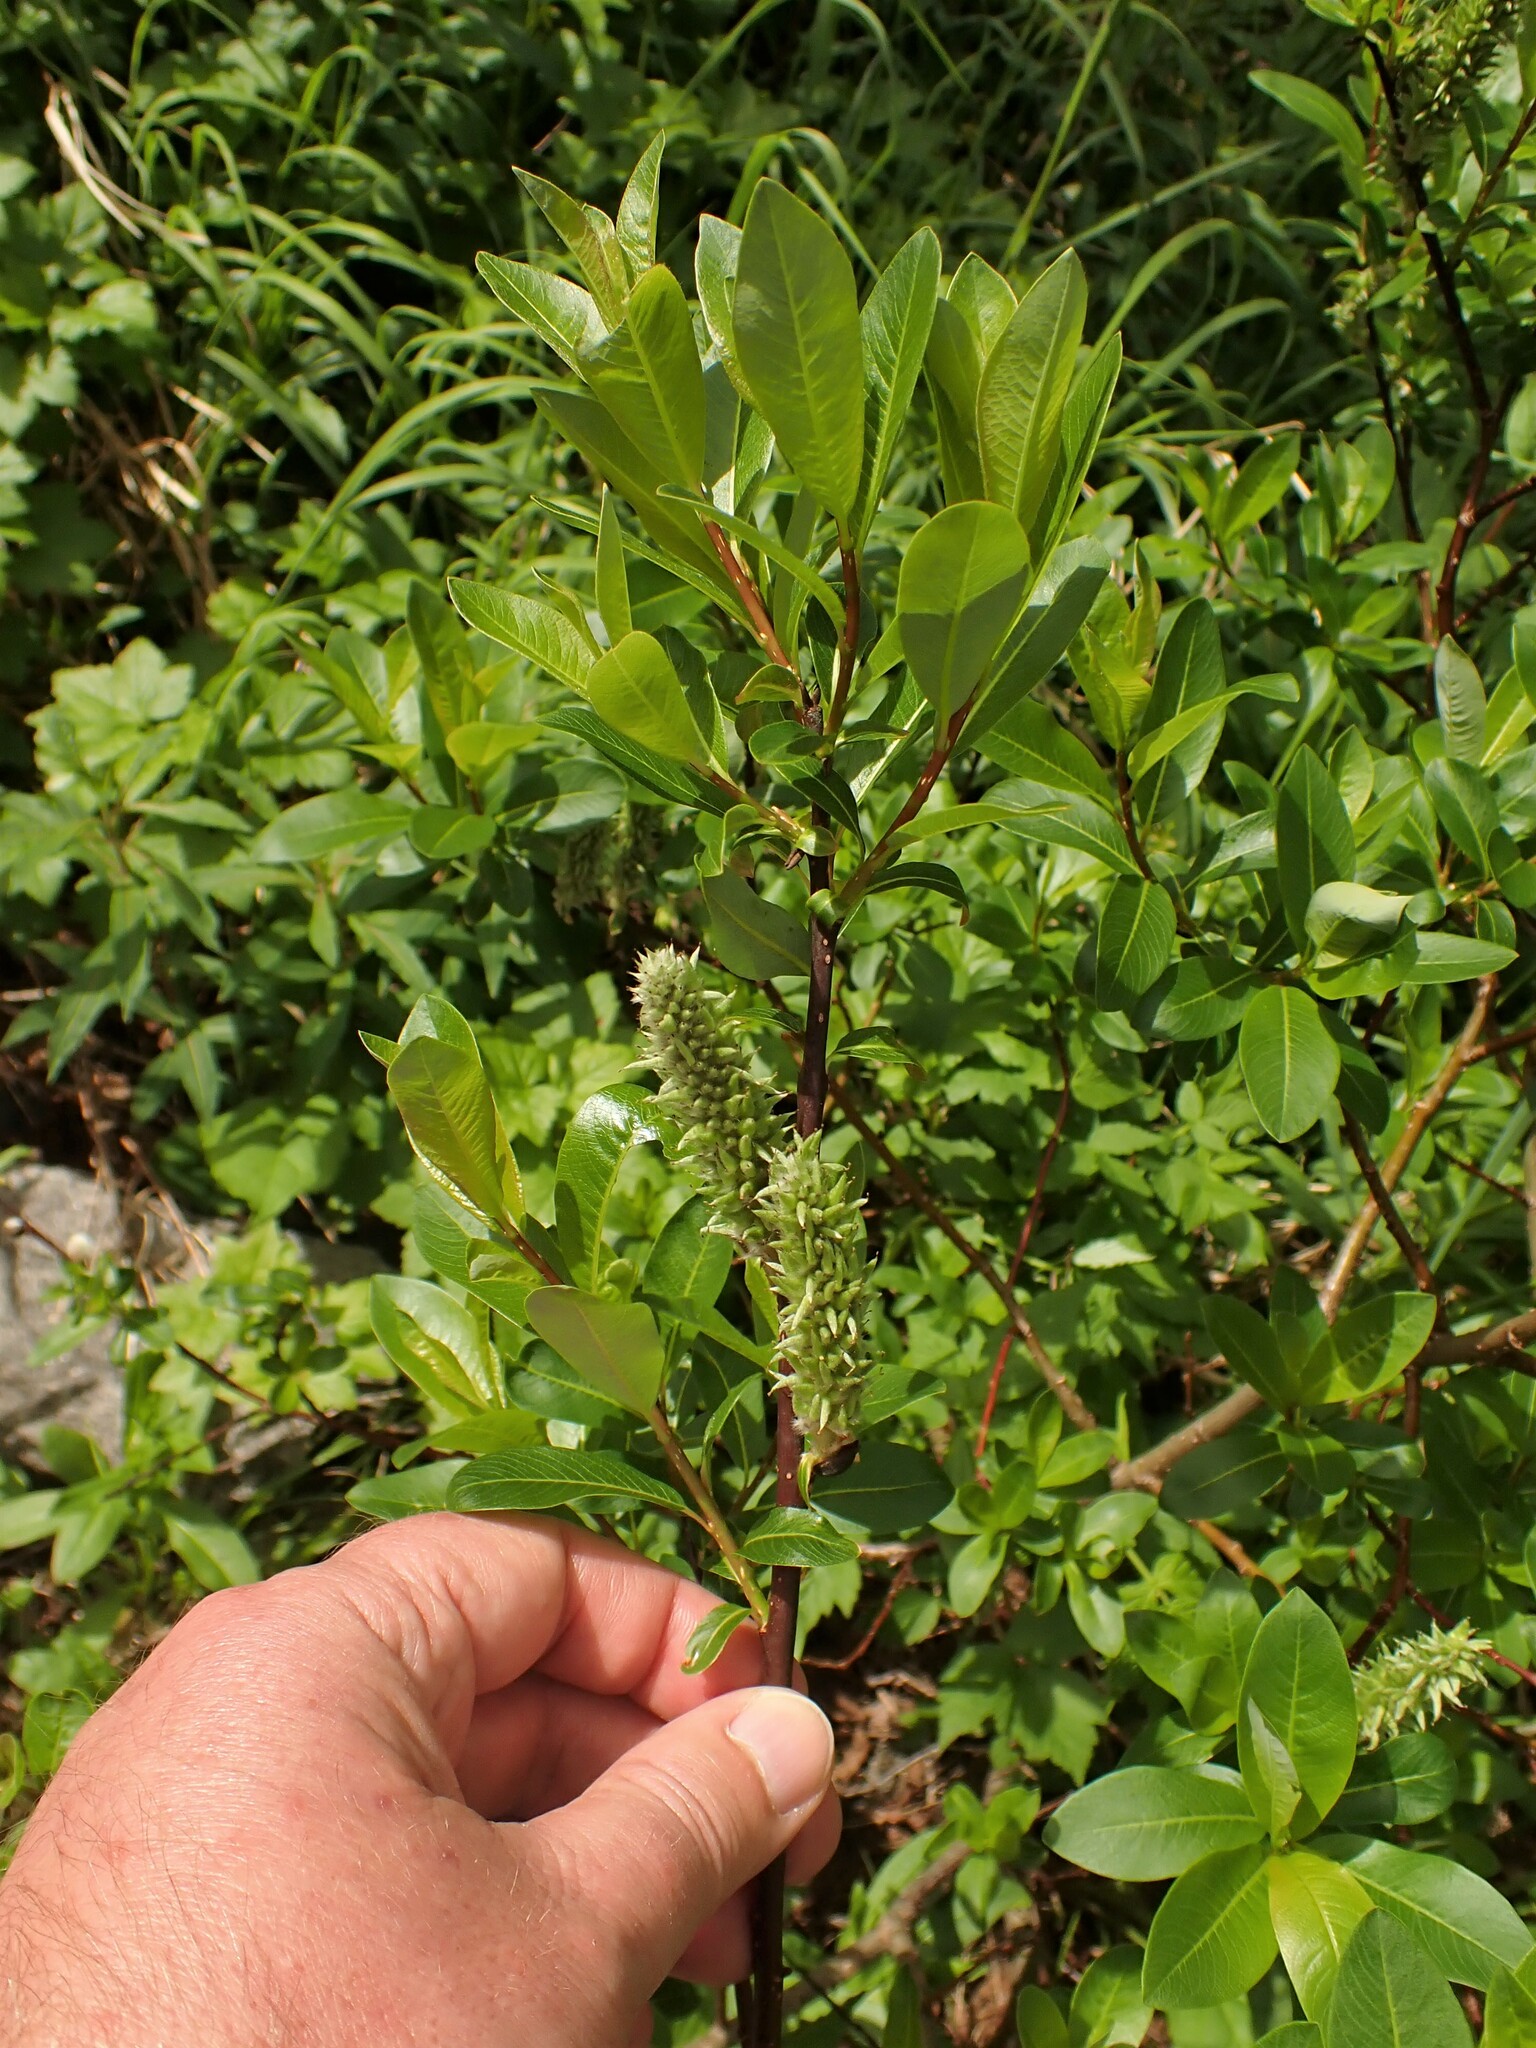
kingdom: Plantae
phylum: Tracheophyta
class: Magnoliopsida
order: Malpighiales
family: Salicaceae
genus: Salix
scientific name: Salix planifolia
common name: Mountain willow
